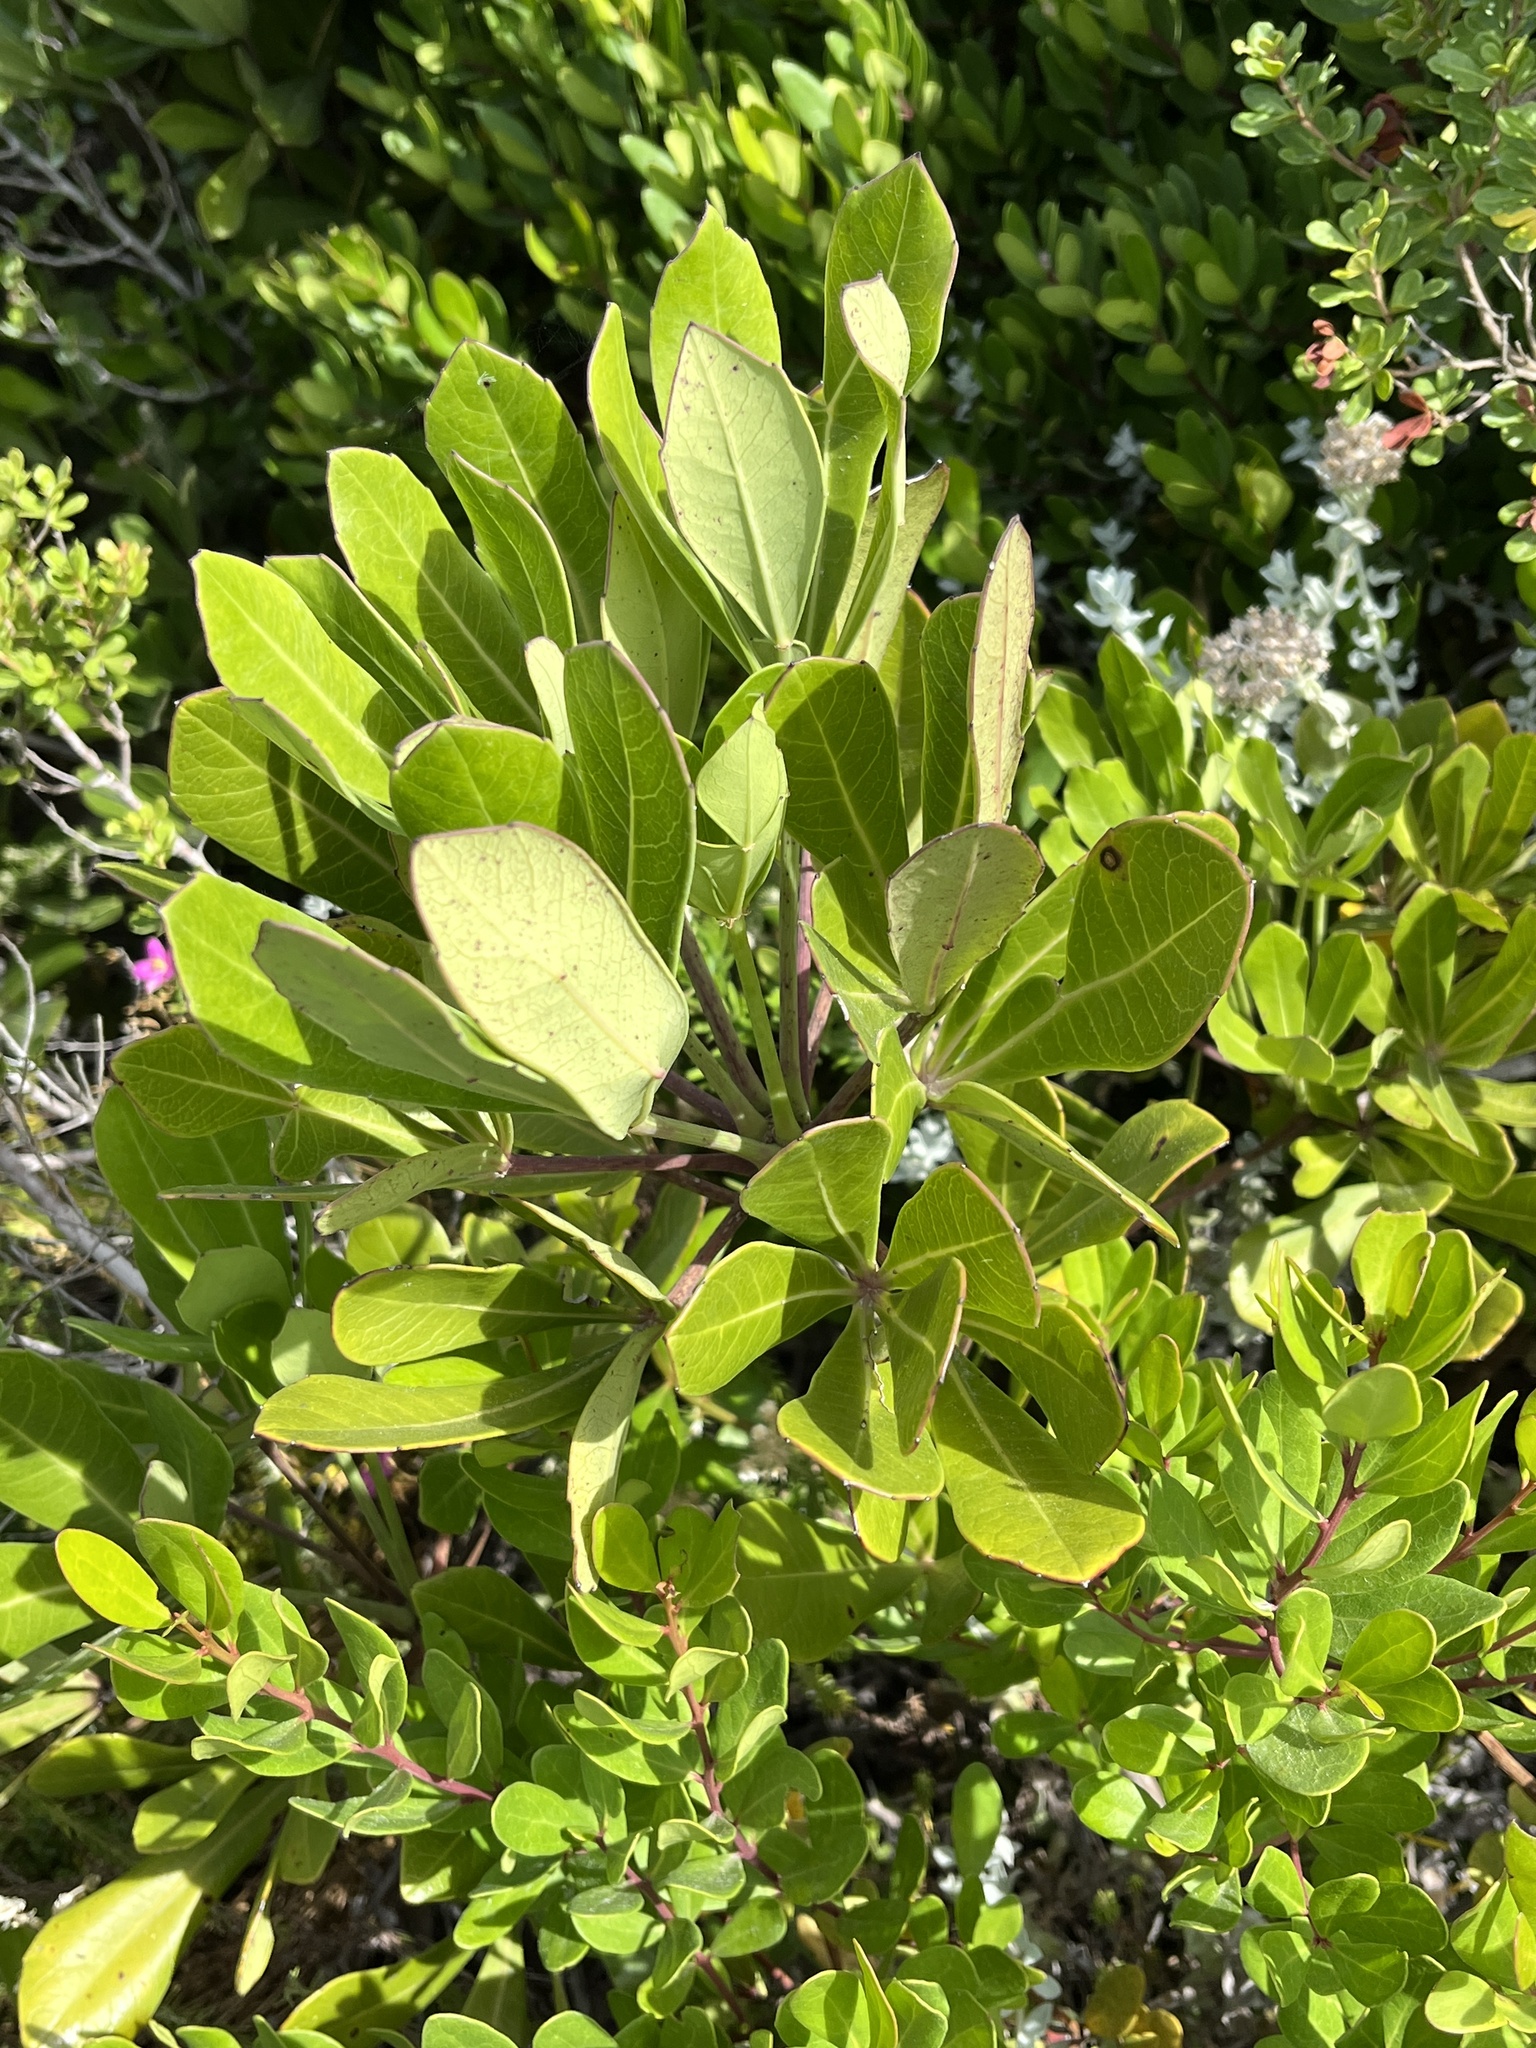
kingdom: Plantae
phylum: Tracheophyta
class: Magnoliopsida
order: Apiales
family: Araliaceae
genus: Cussonia
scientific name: Cussonia thyrsiflora
